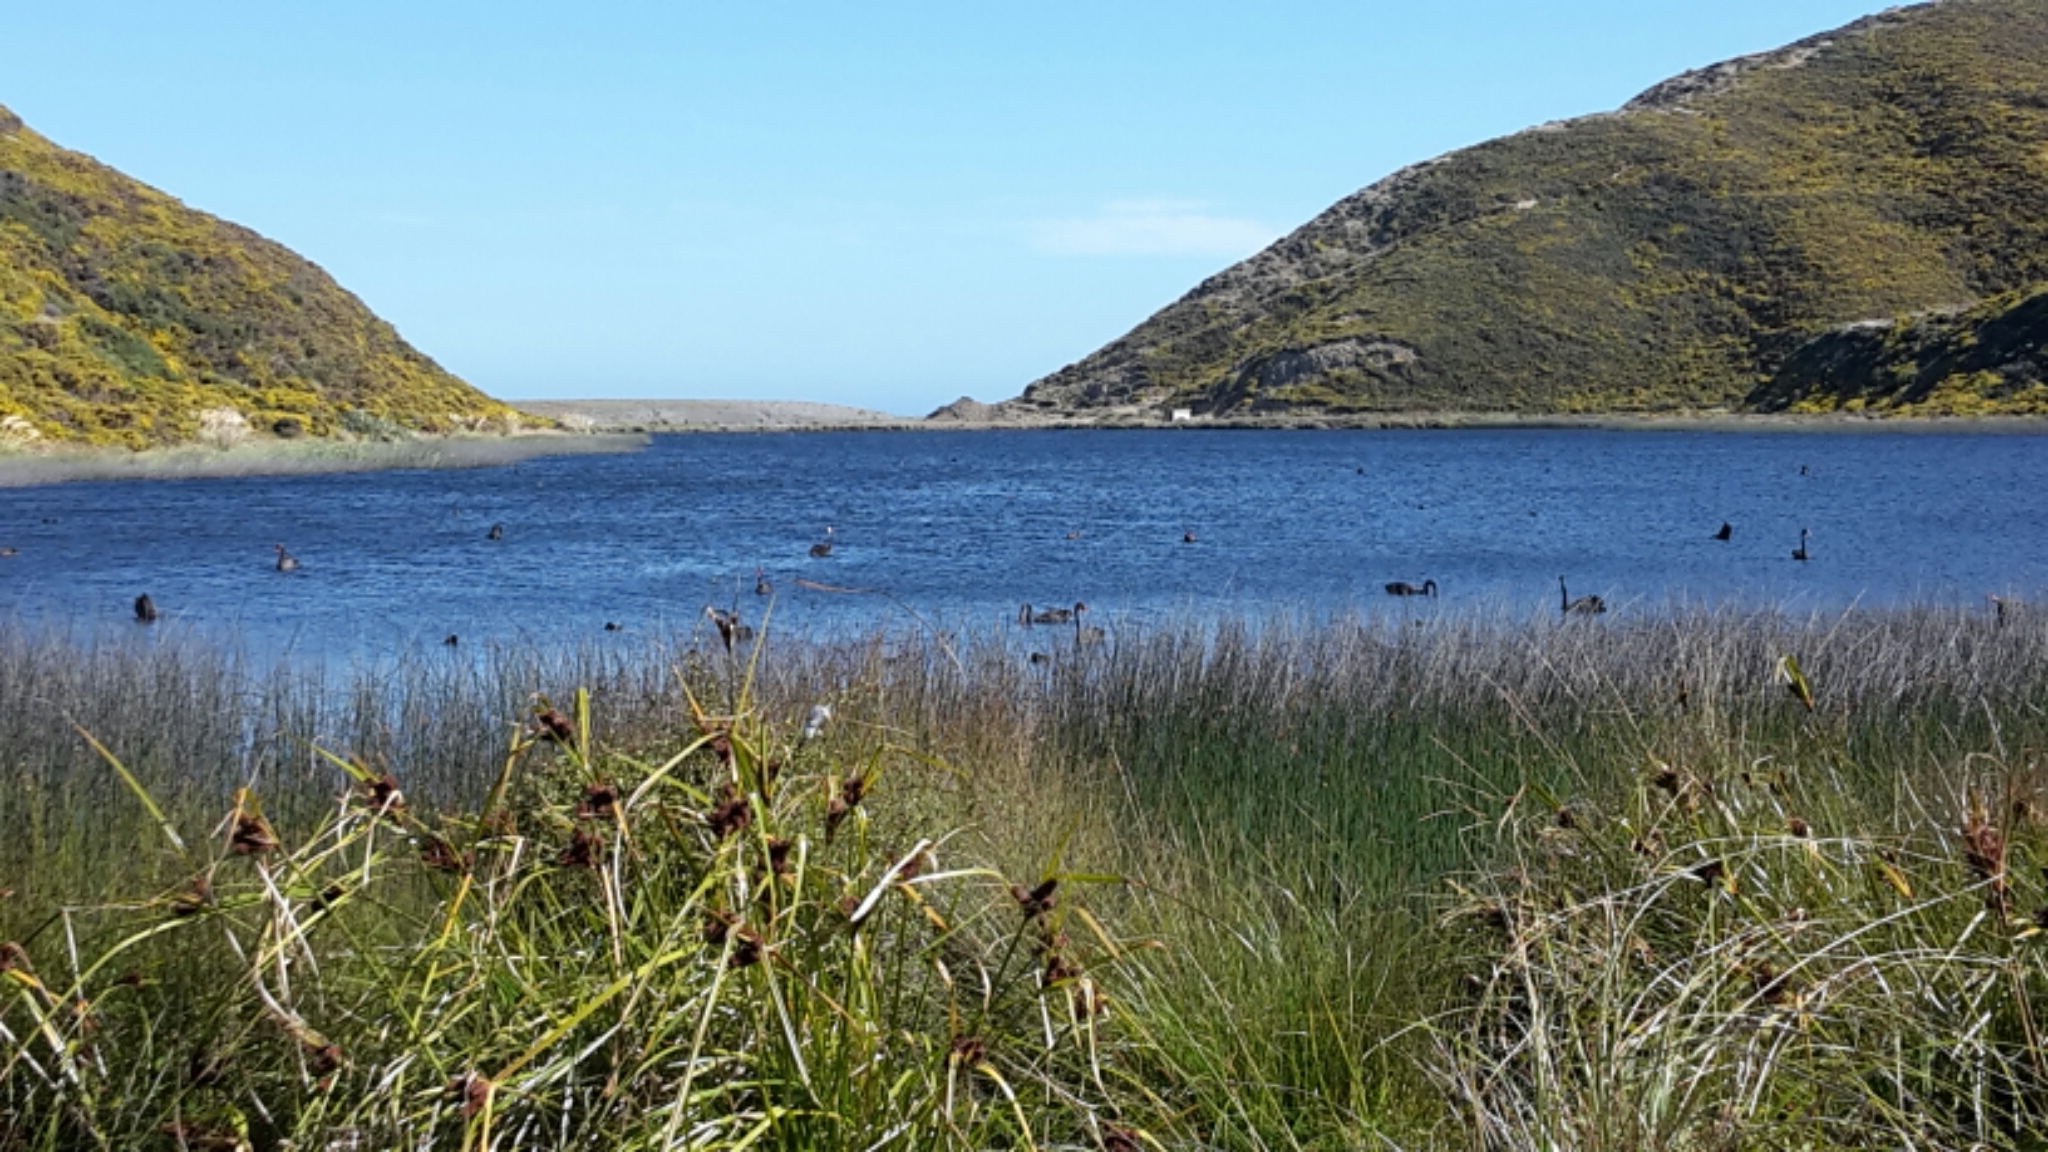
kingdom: Animalia
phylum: Chordata
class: Aves
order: Anseriformes
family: Anatidae
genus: Cygnus
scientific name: Cygnus atratus
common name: Black swan
